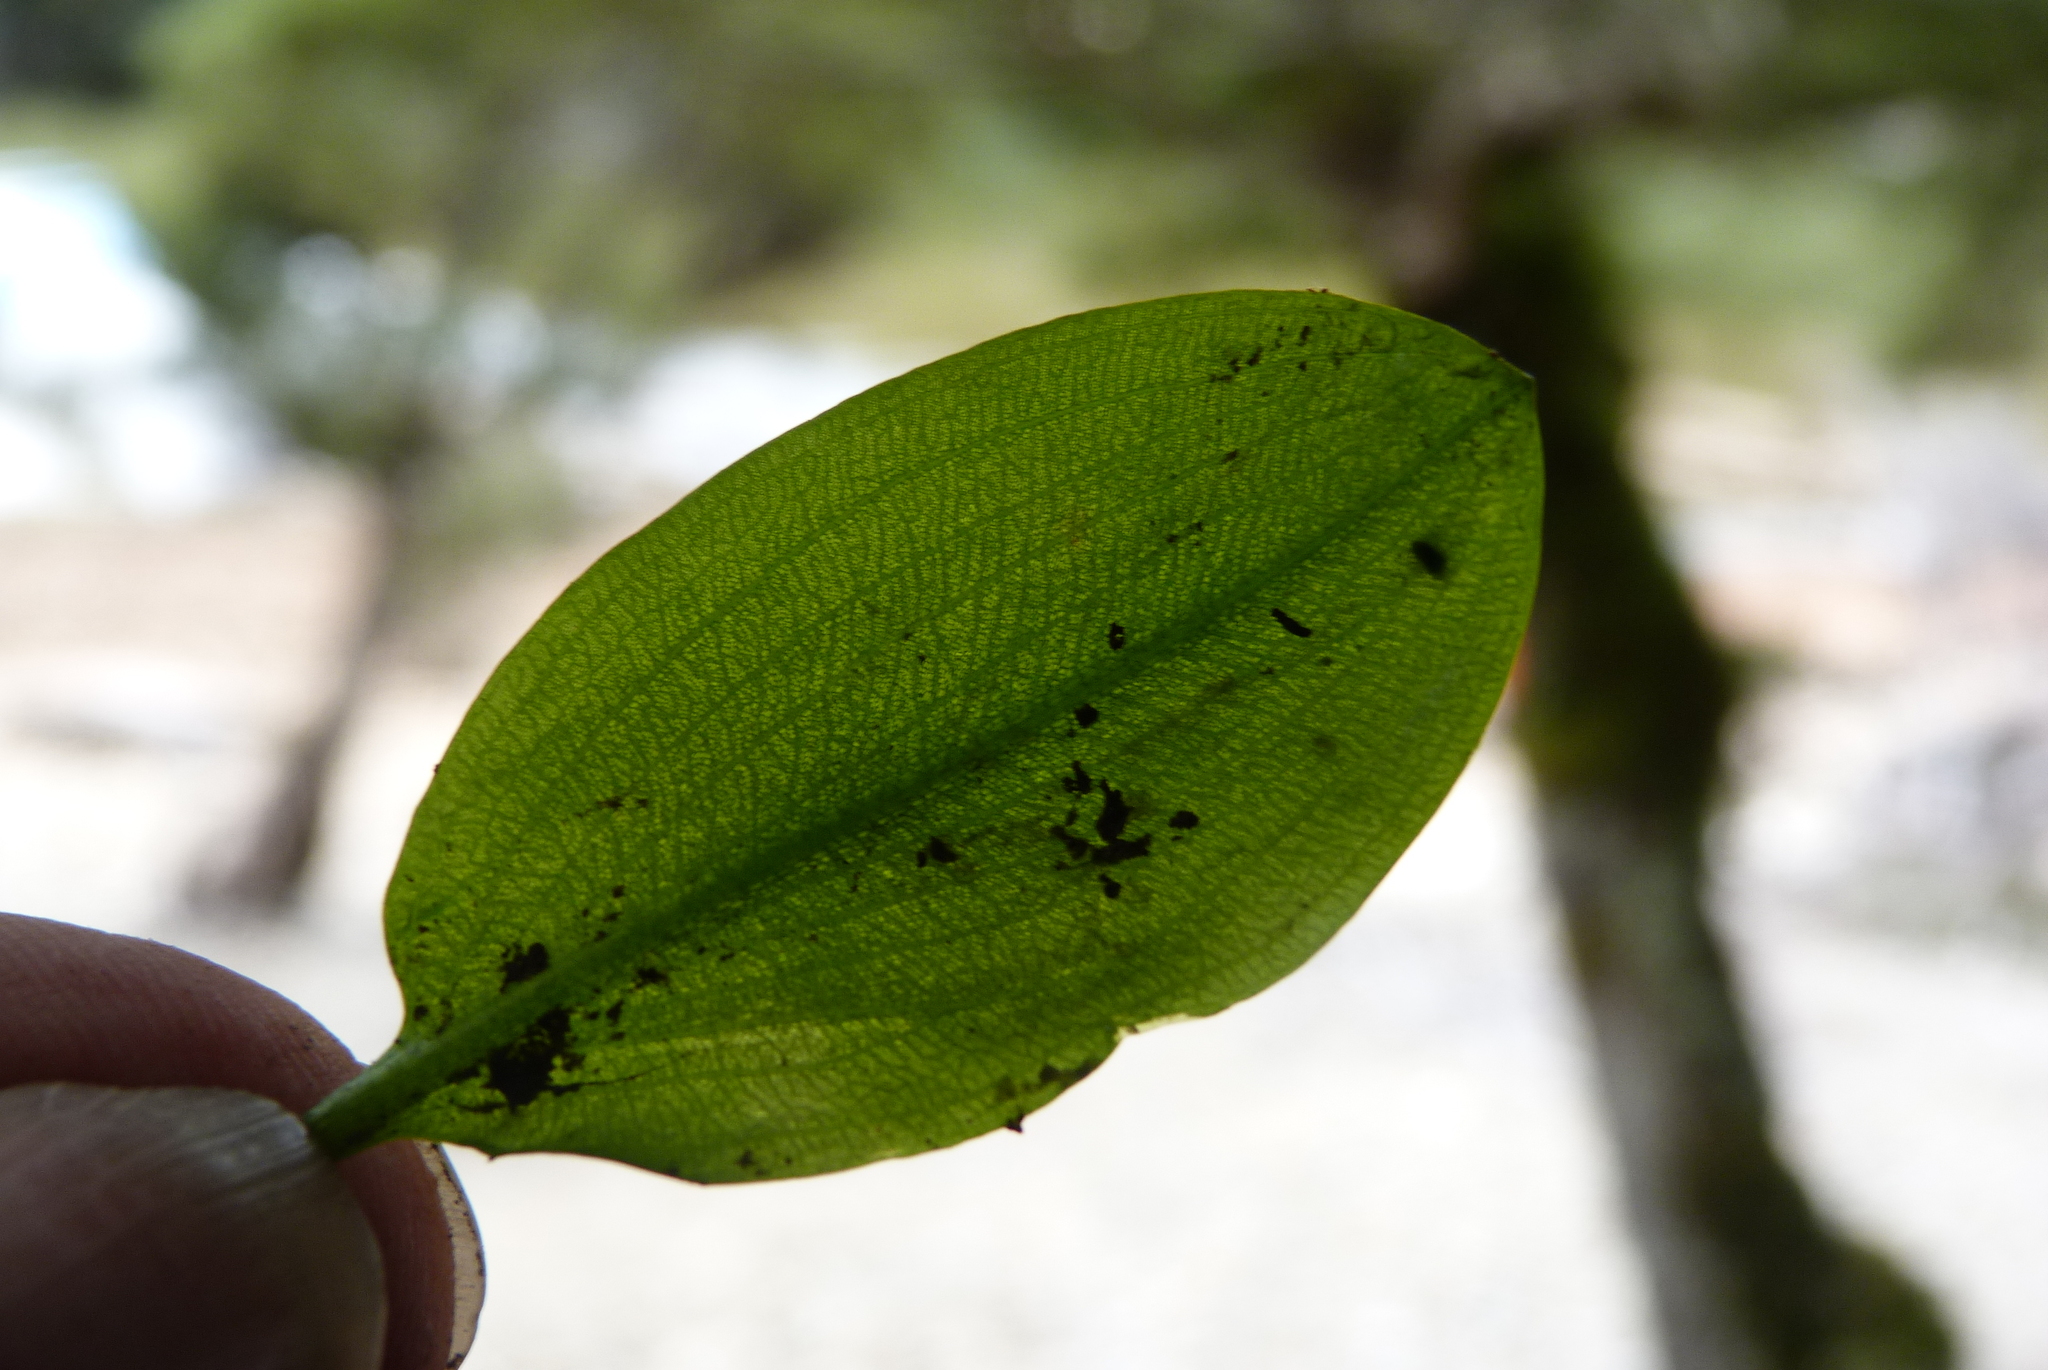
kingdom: Plantae
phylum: Tracheophyta
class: Liliopsida
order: Alismatales
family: Potamogetonaceae
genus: Potamogeton
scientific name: Potamogeton suboblongus
